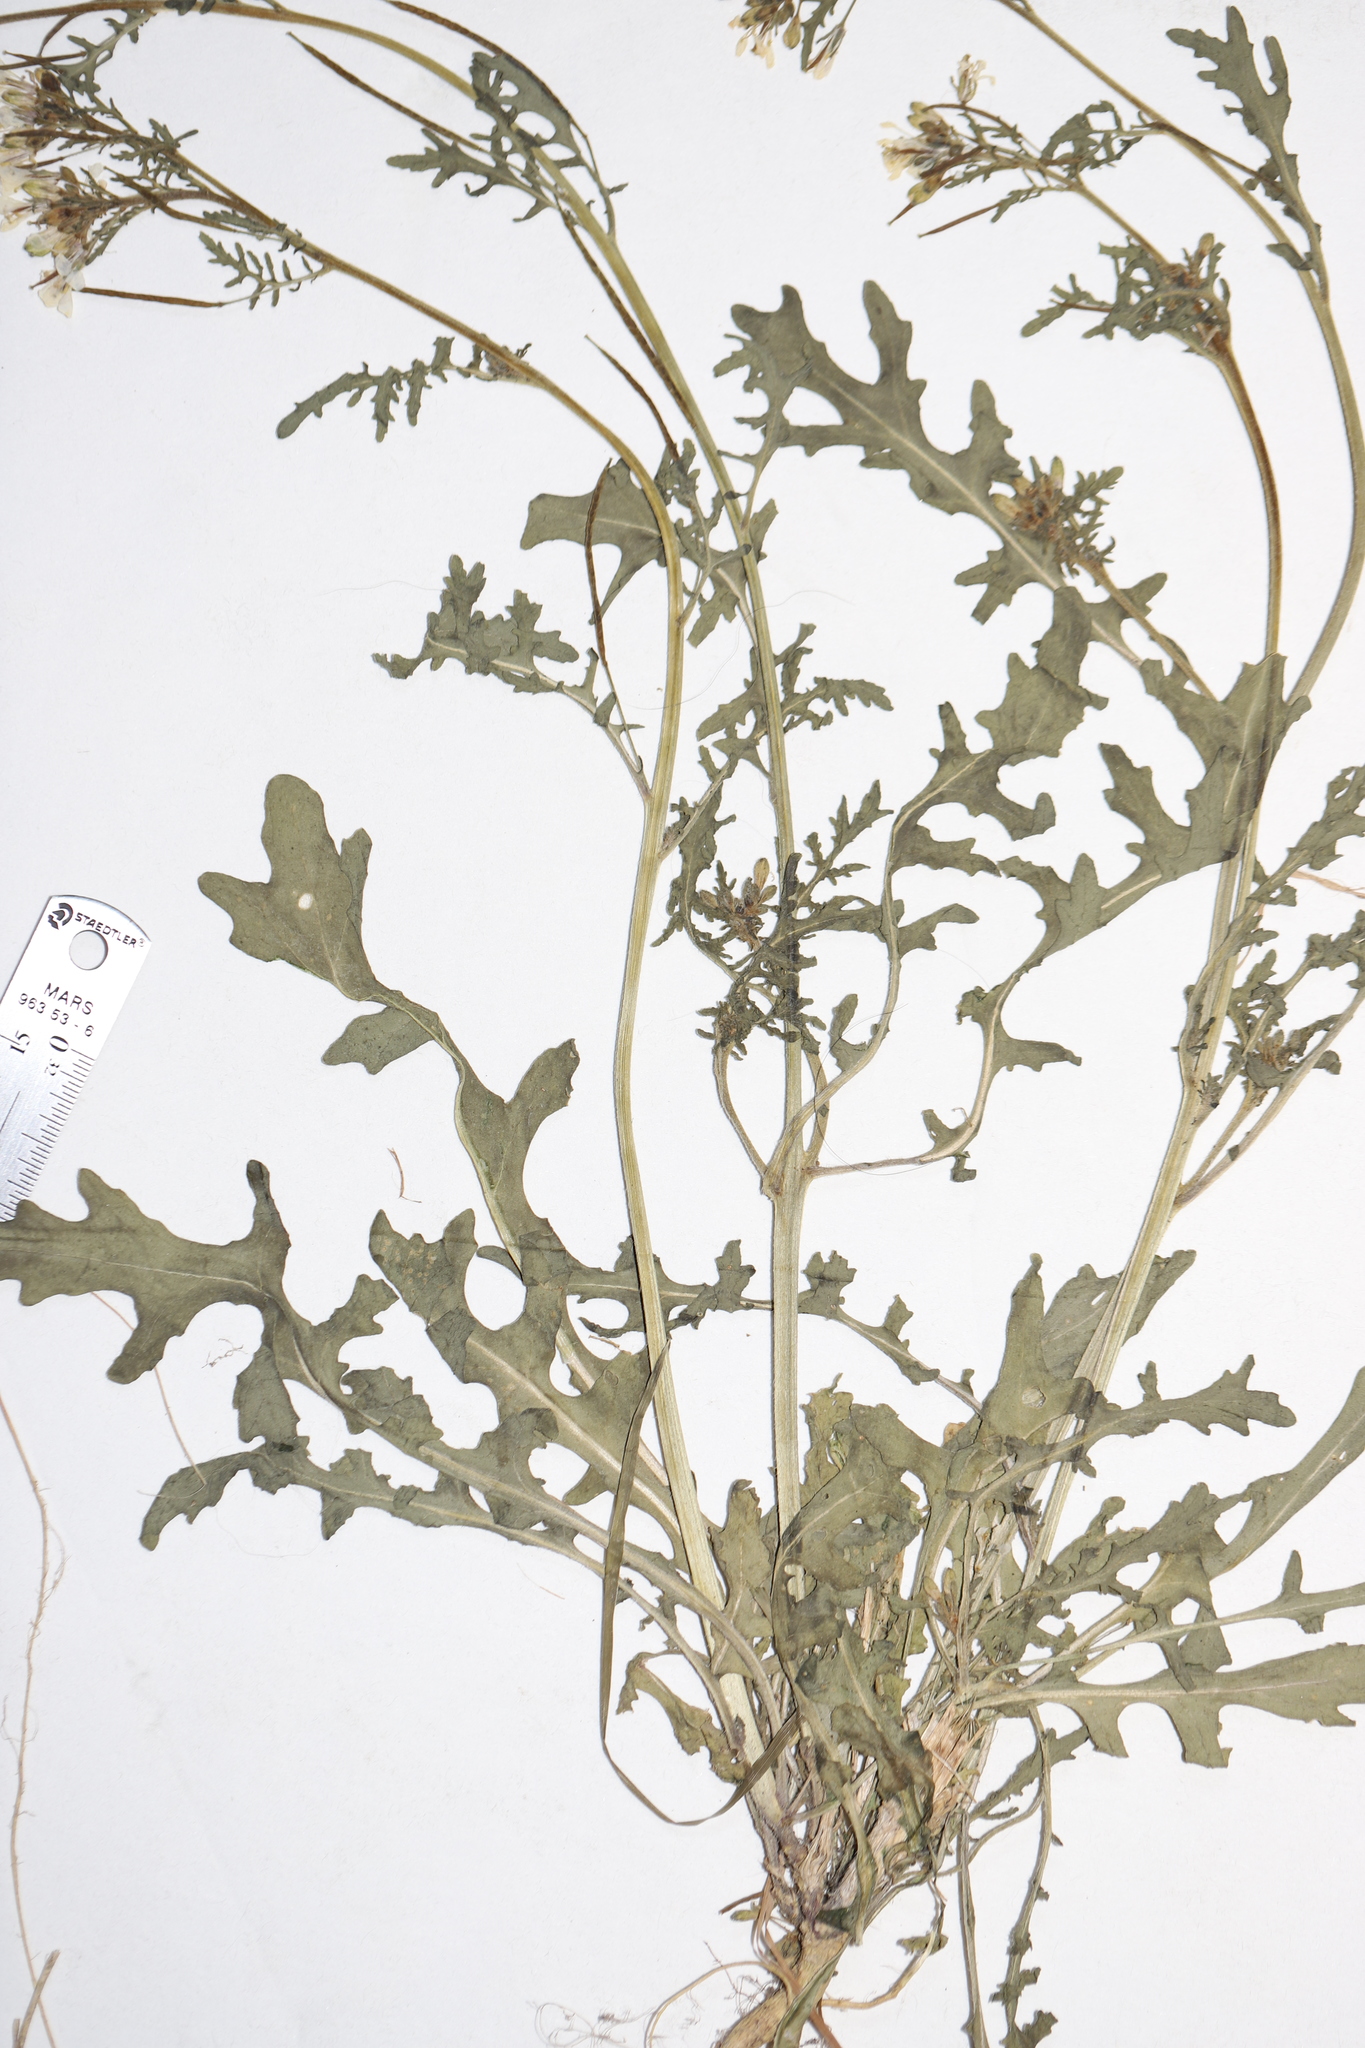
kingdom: Plantae
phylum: Tracheophyta
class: Magnoliopsida
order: Brassicales
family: Brassicaceae
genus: Erucastrum
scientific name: Erucastrum gallicum
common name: Hairy rocket
